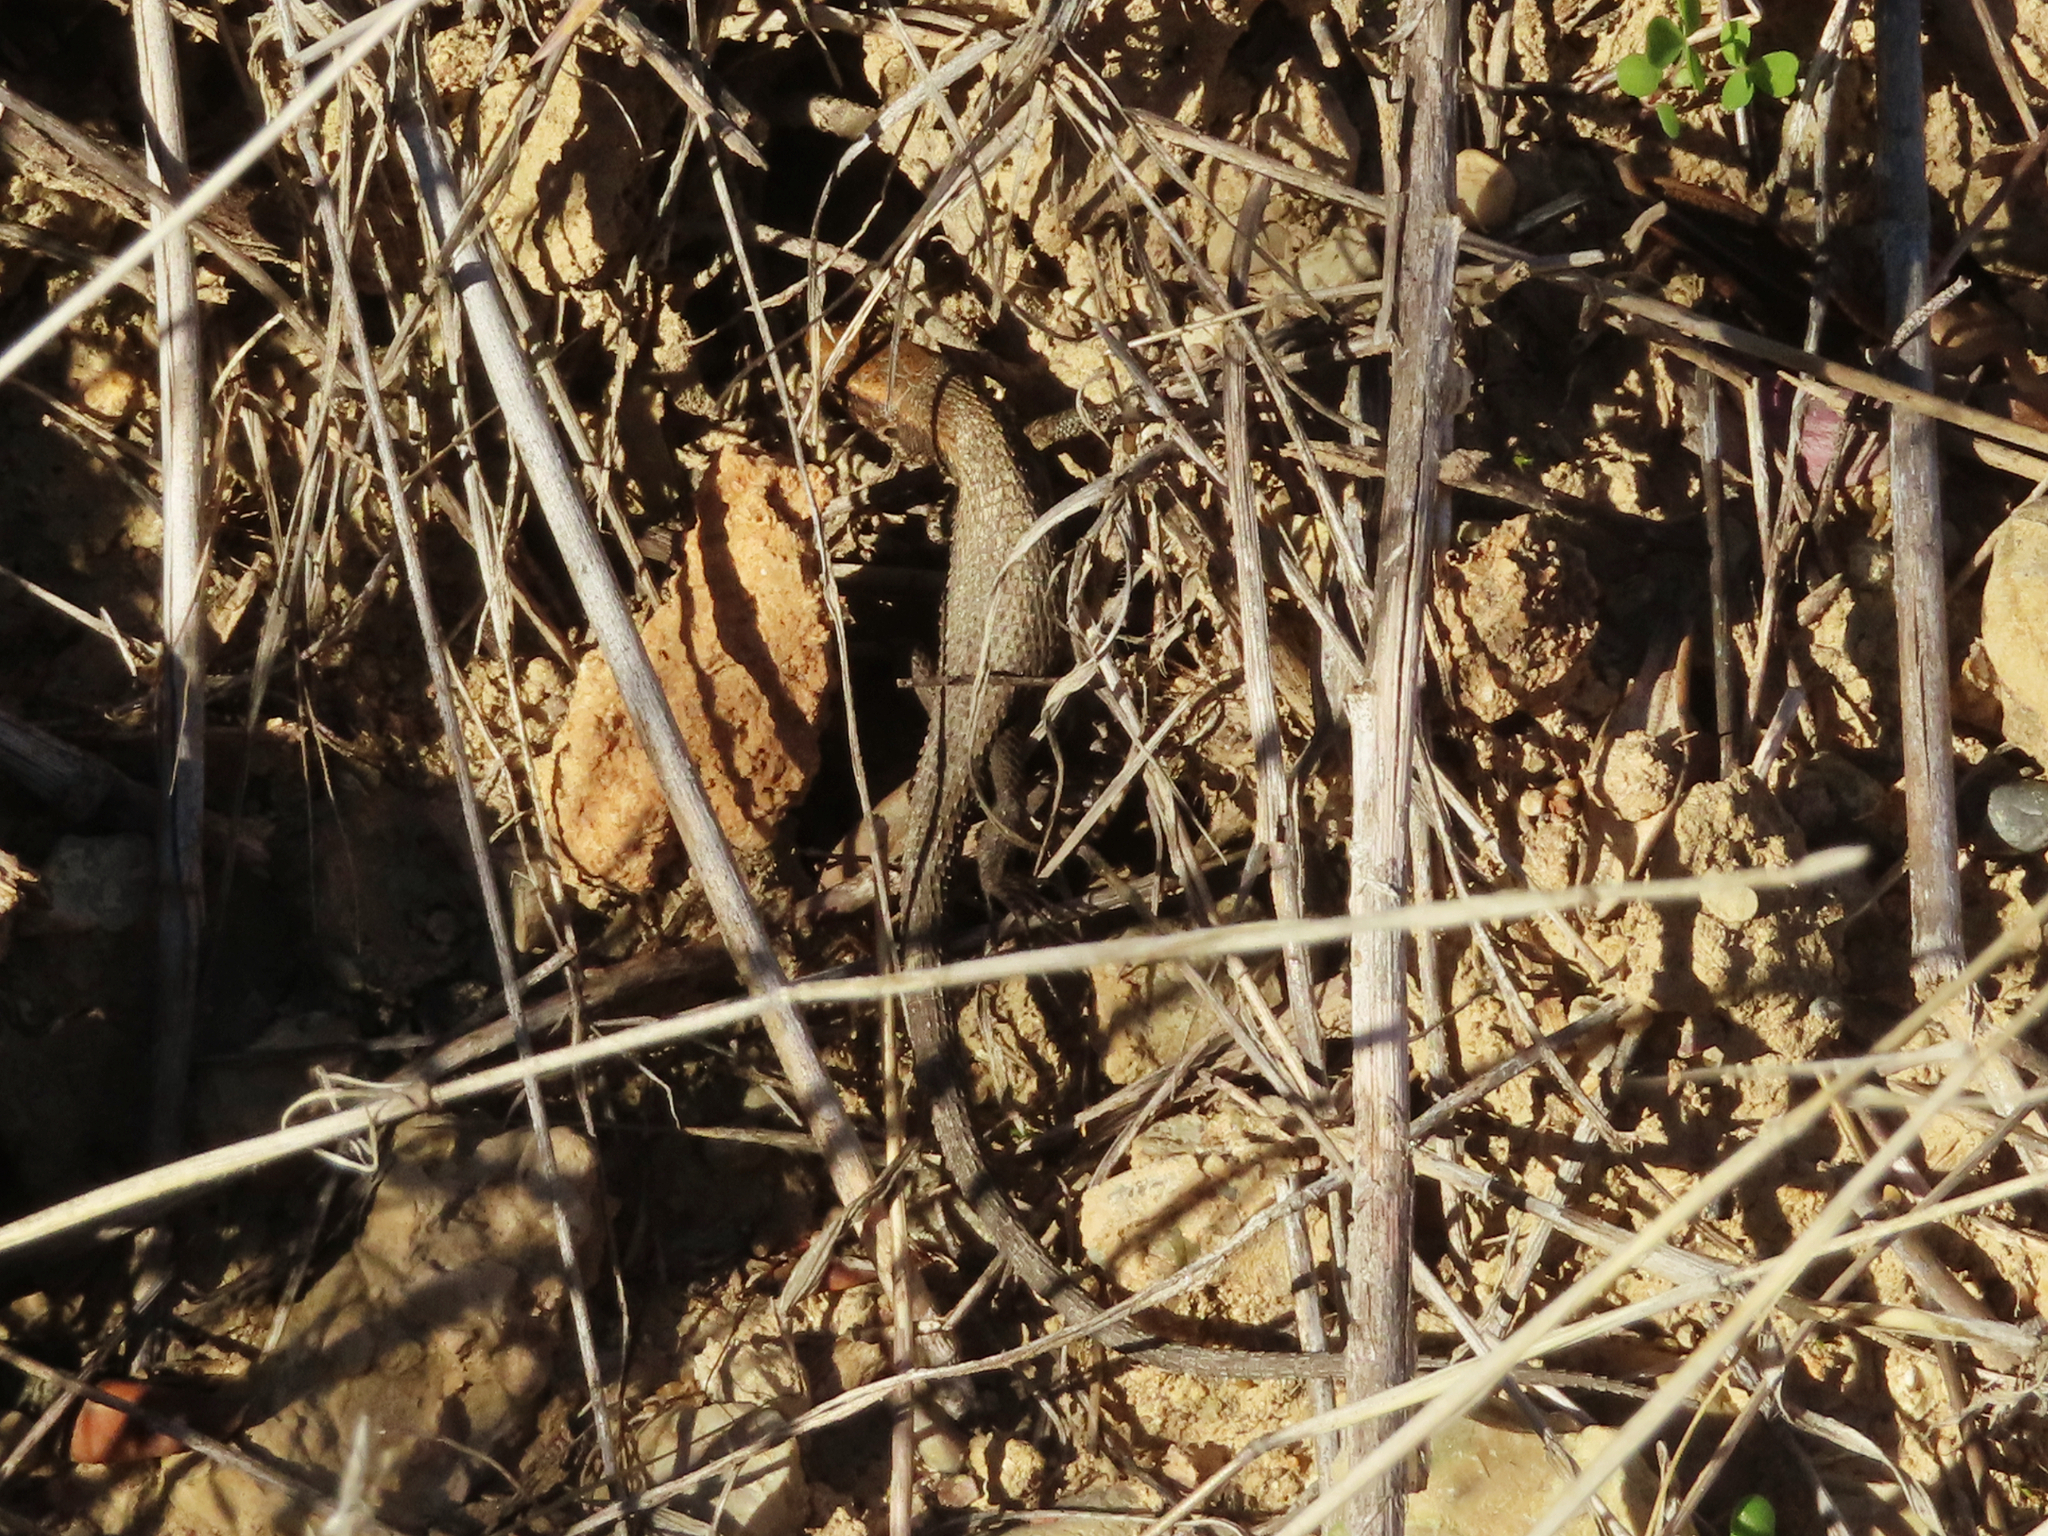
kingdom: Animalia
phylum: Chordata
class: Squamata
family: Lacertidae
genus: Algyroides
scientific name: Algyroides moreoticus
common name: Greek algyroides
